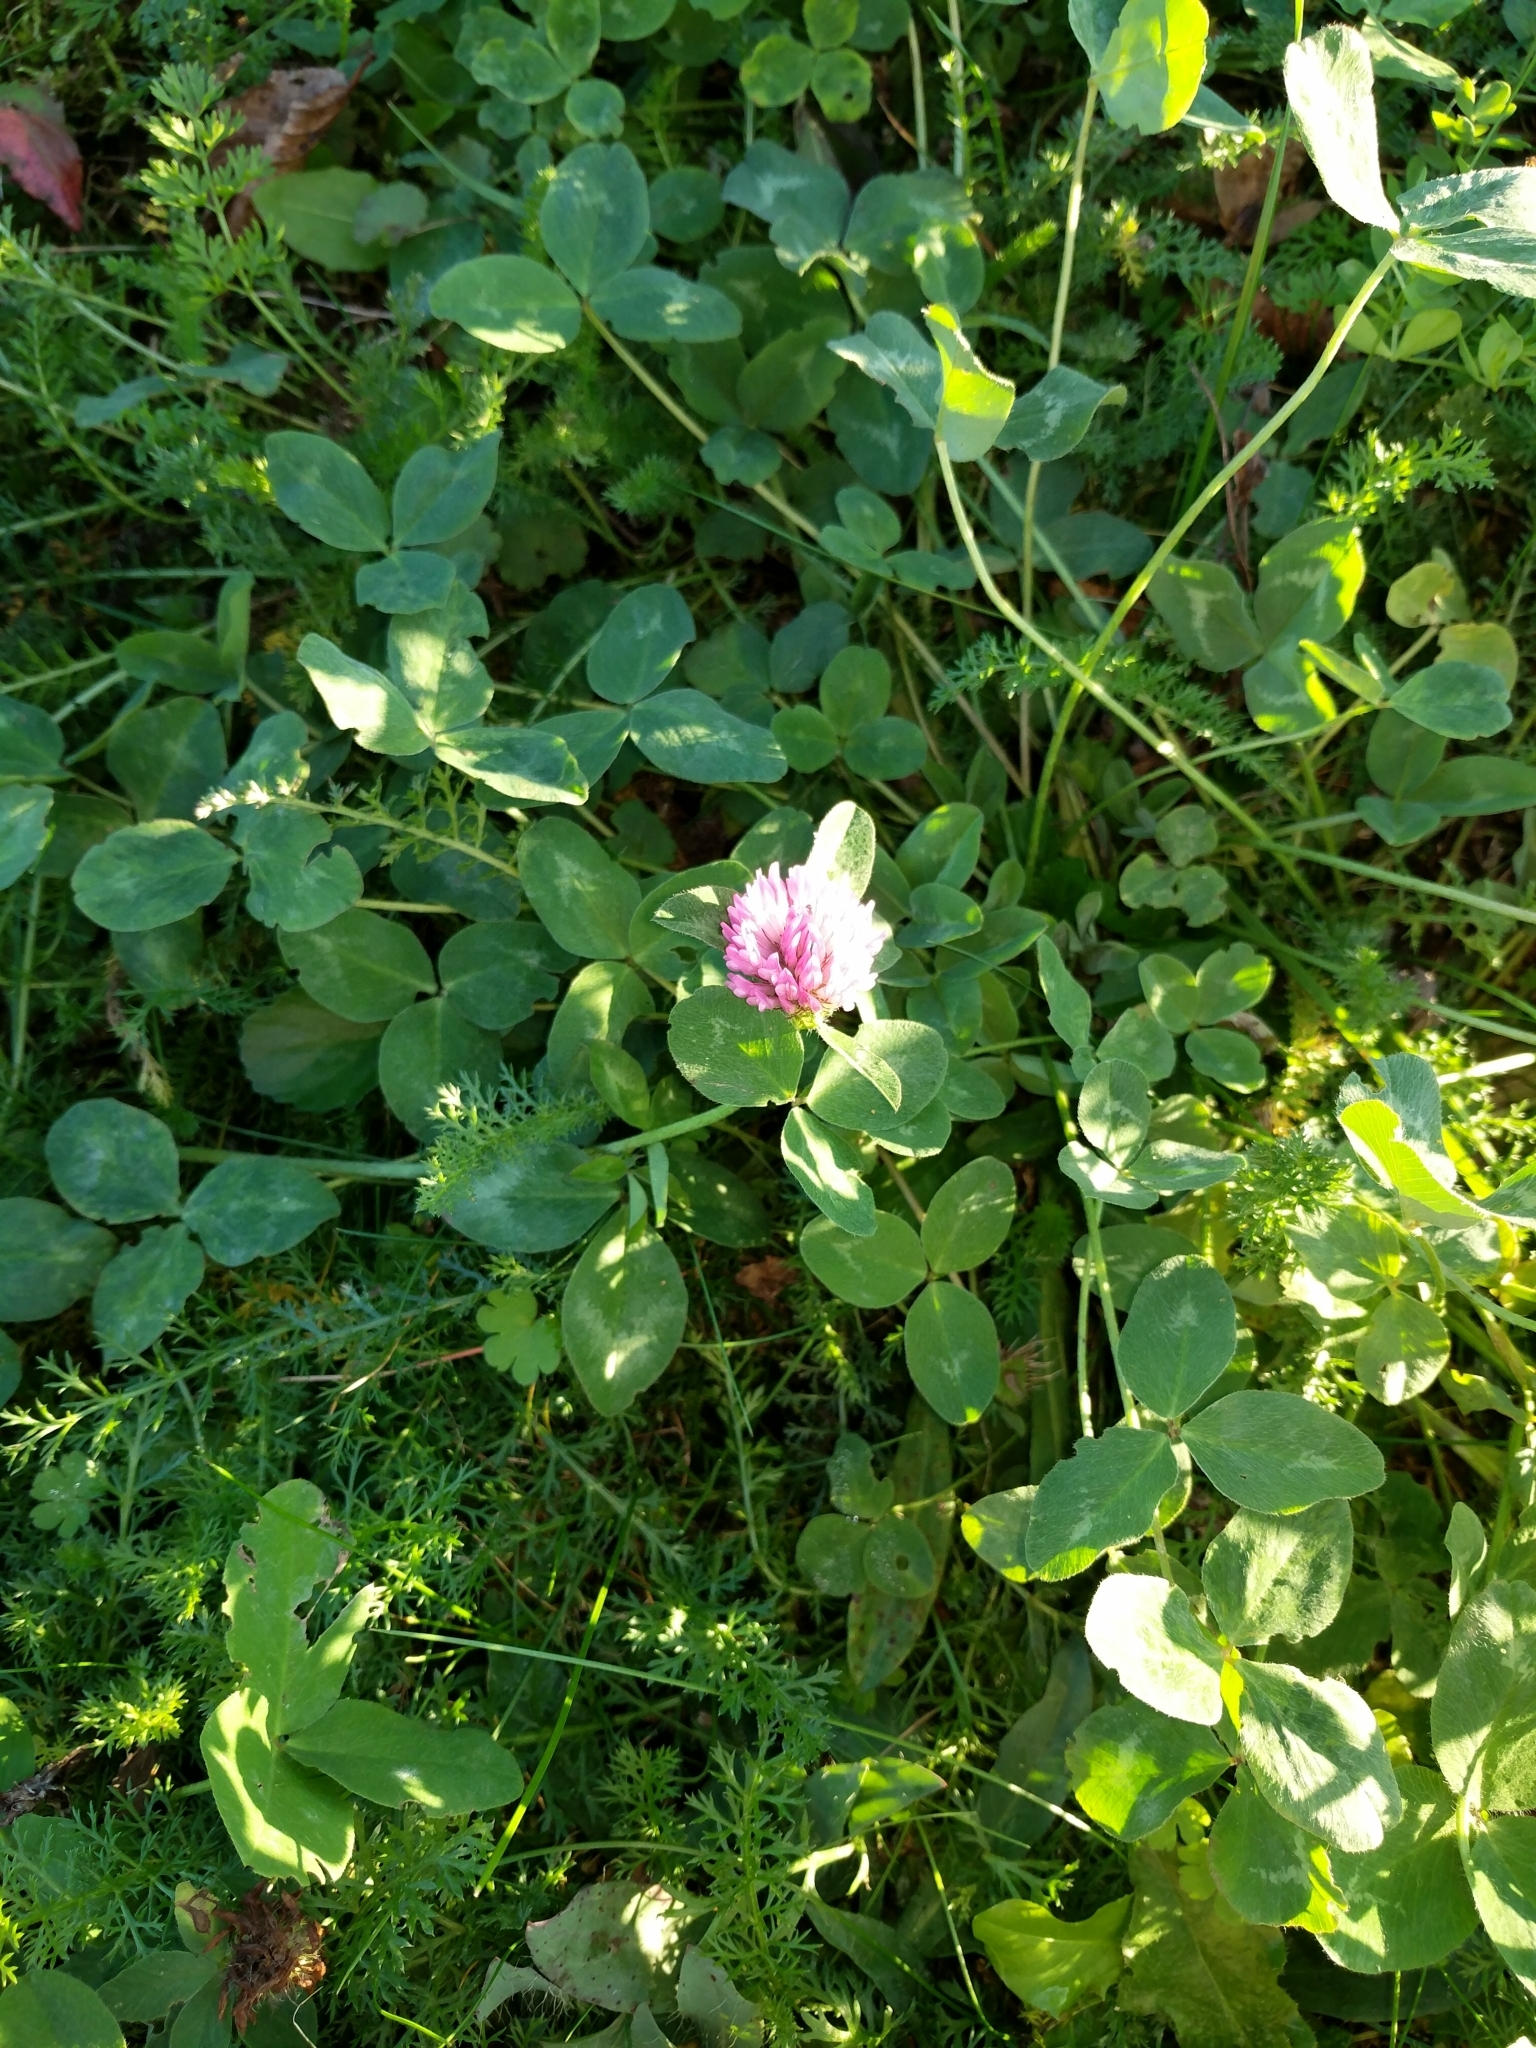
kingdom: Plantae
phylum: Tracheophyta
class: Magnoliopsida
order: Fabales
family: Fabaceae
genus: Trifolium
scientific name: Trifolium pratense
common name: Red clover
